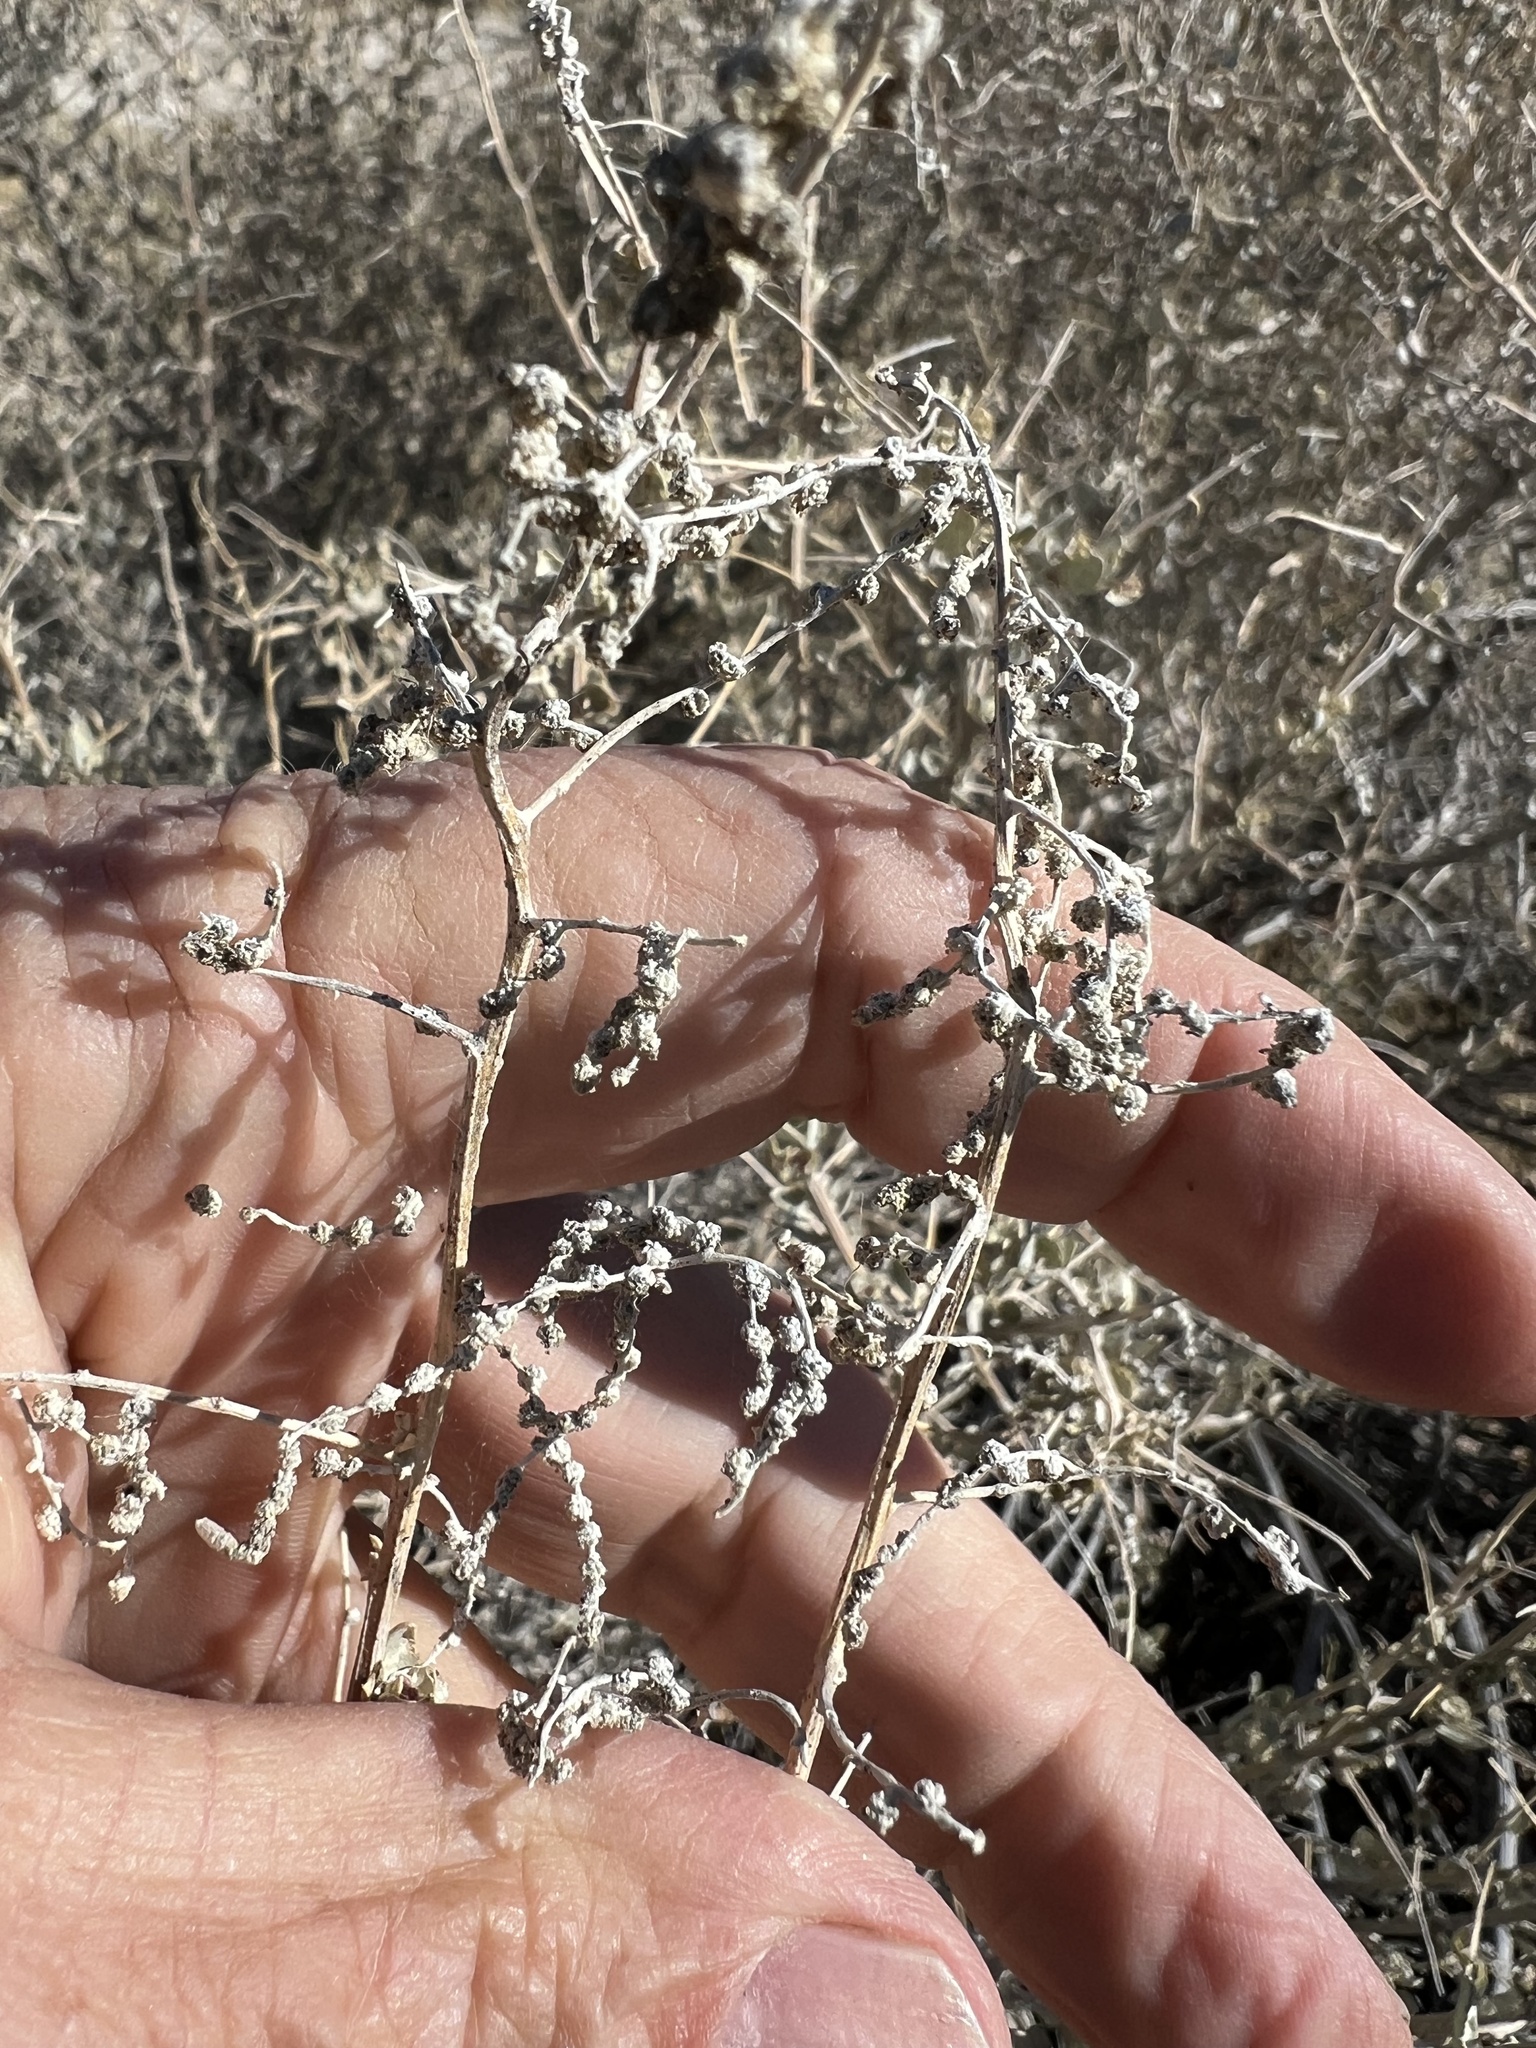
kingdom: Plantae
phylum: Tracheophyta
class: Magnoliopsida
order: Caryophyllales
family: Amaranthaceae
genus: Atriplex
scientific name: Atriplex torreyi
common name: Torrey's saltbush
